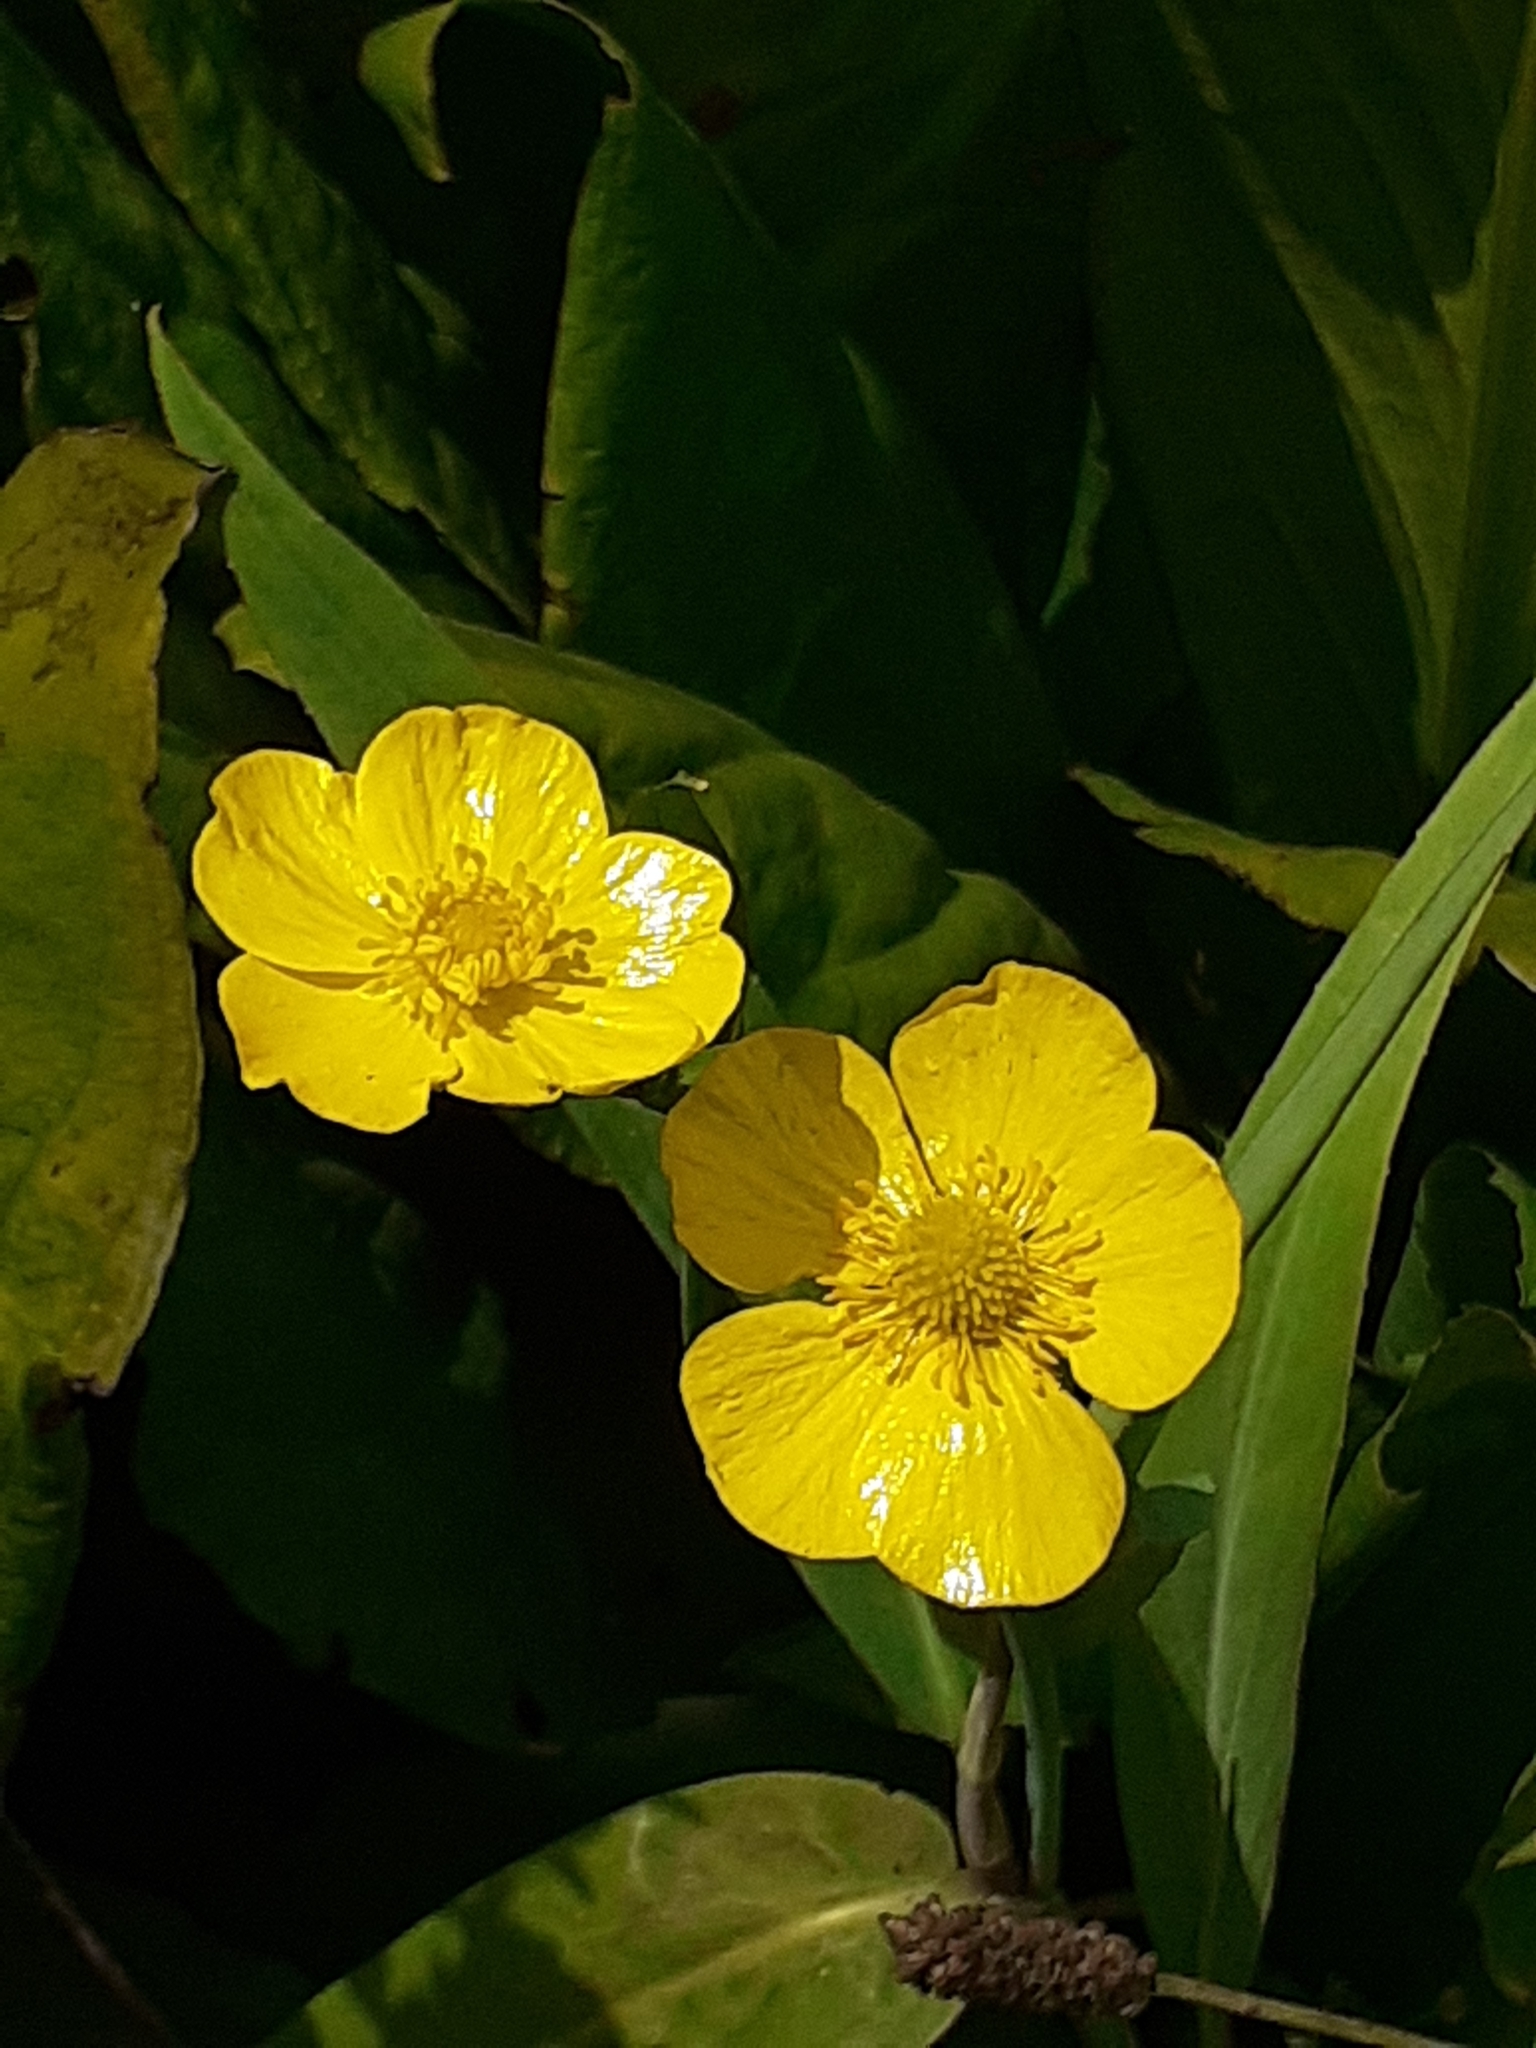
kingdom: Plantae
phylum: Tracheophyta
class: Magnoliopsida
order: Ranunculales
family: Ranunculaceae
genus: Ranunculus
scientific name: Ranunculus lingua
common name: Greater spearwort
